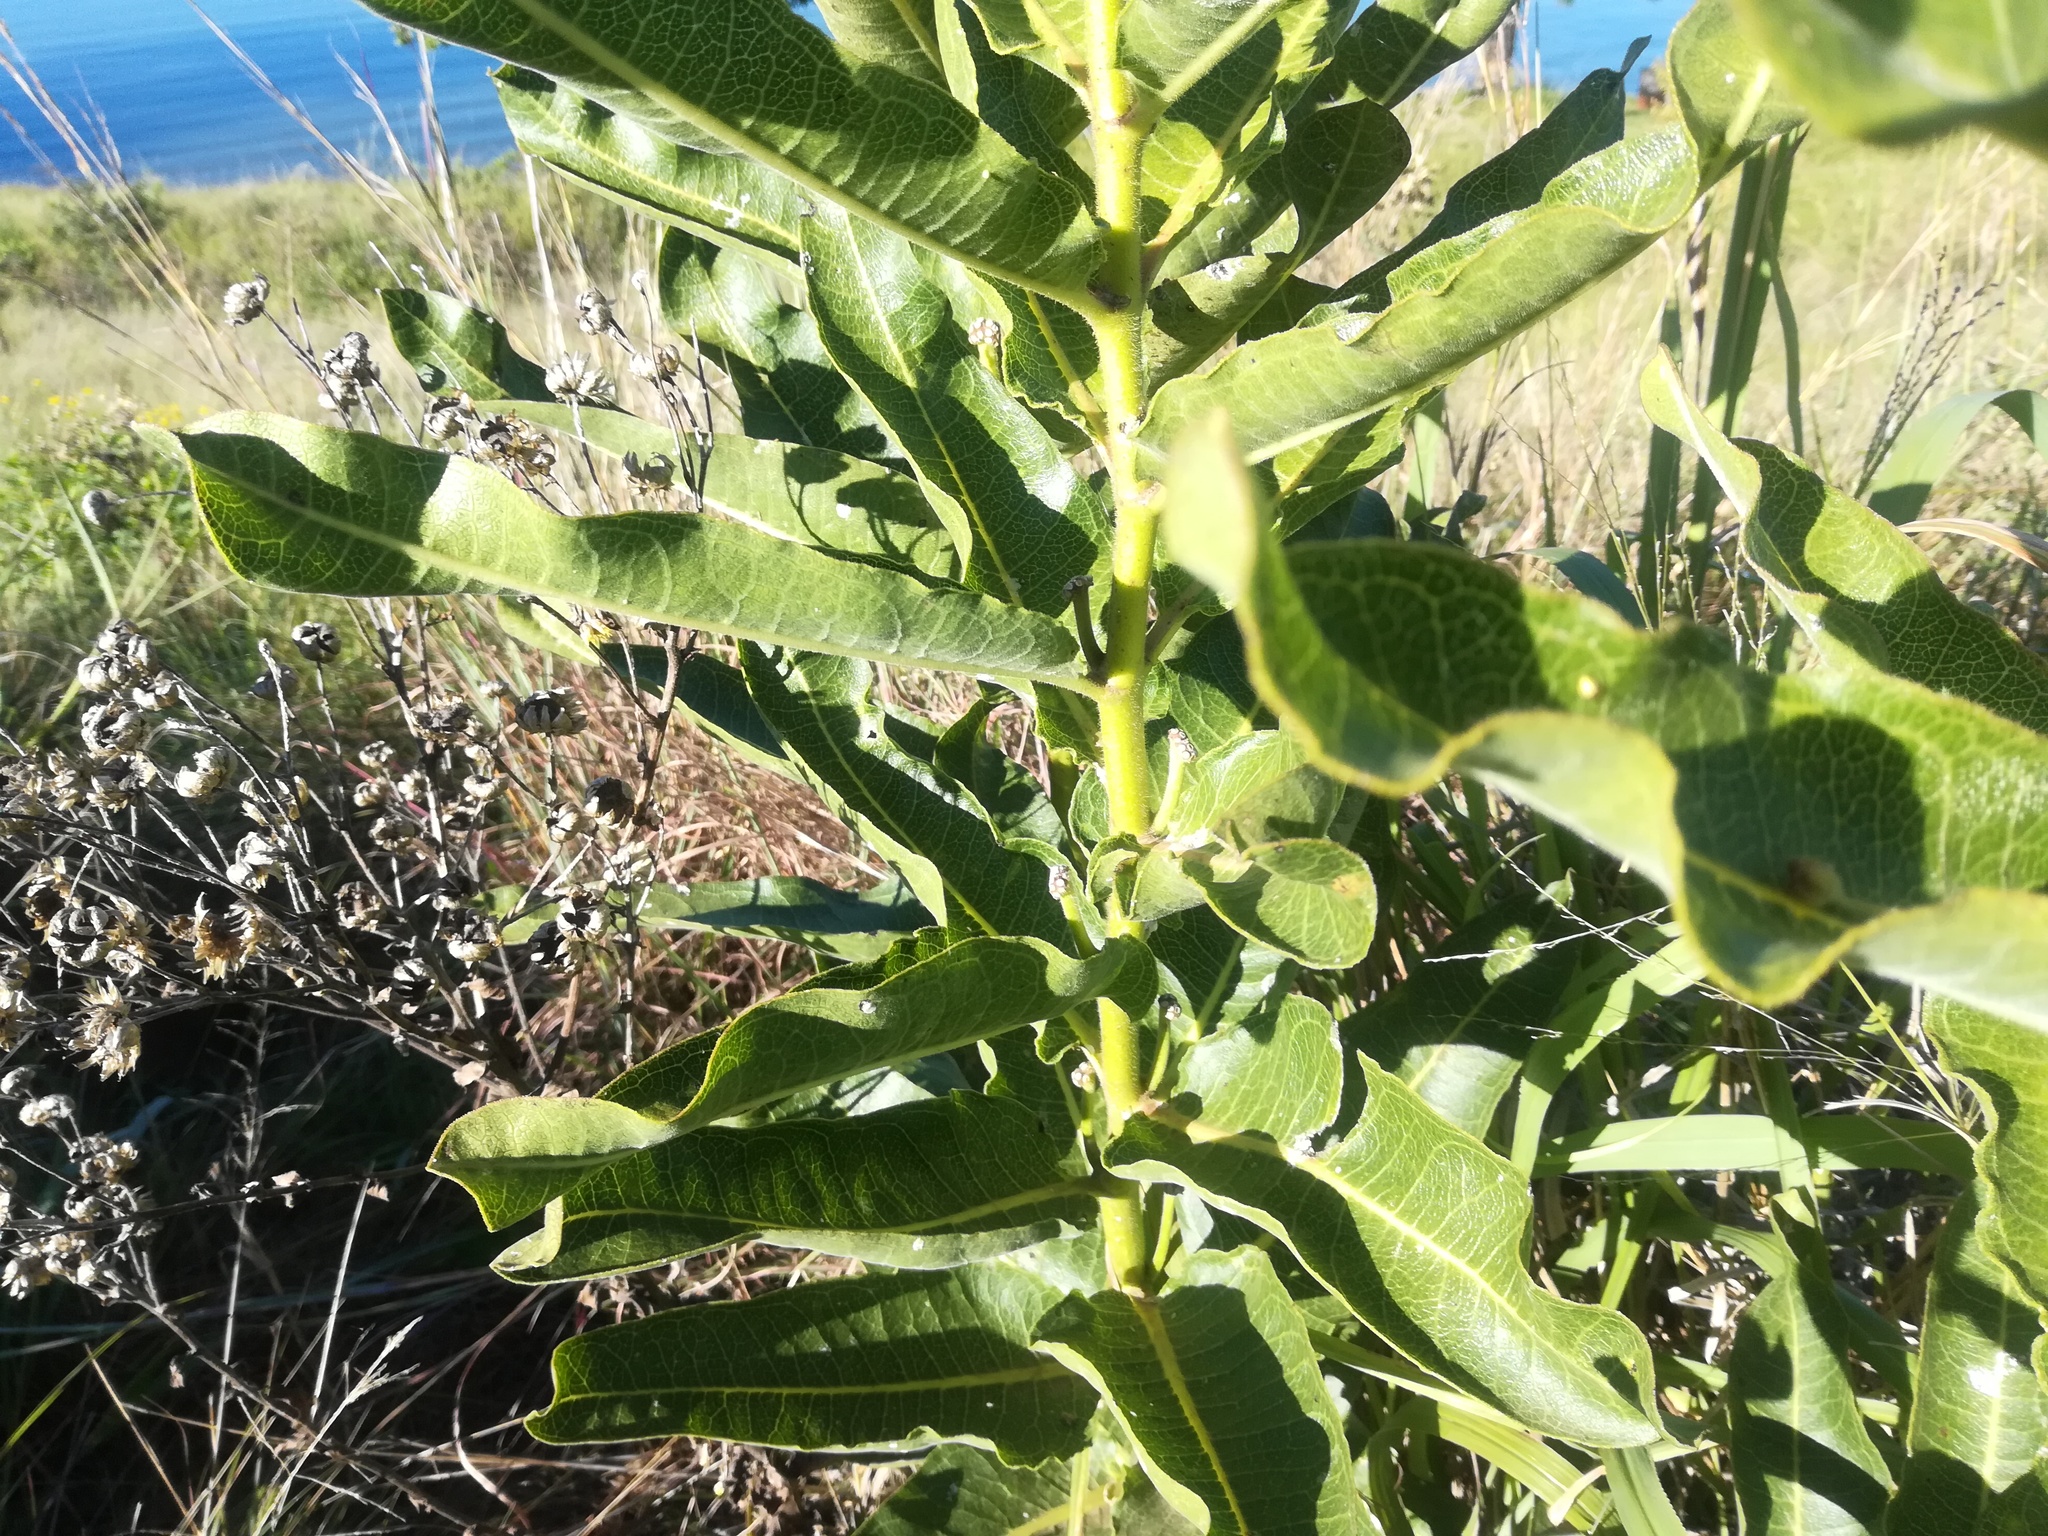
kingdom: Plantae
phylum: Tracheophyta
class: Magnoliopsida
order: Gentianales
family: Apocynaceae
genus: Xysmalobium
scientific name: Xysmalobium undulatum
